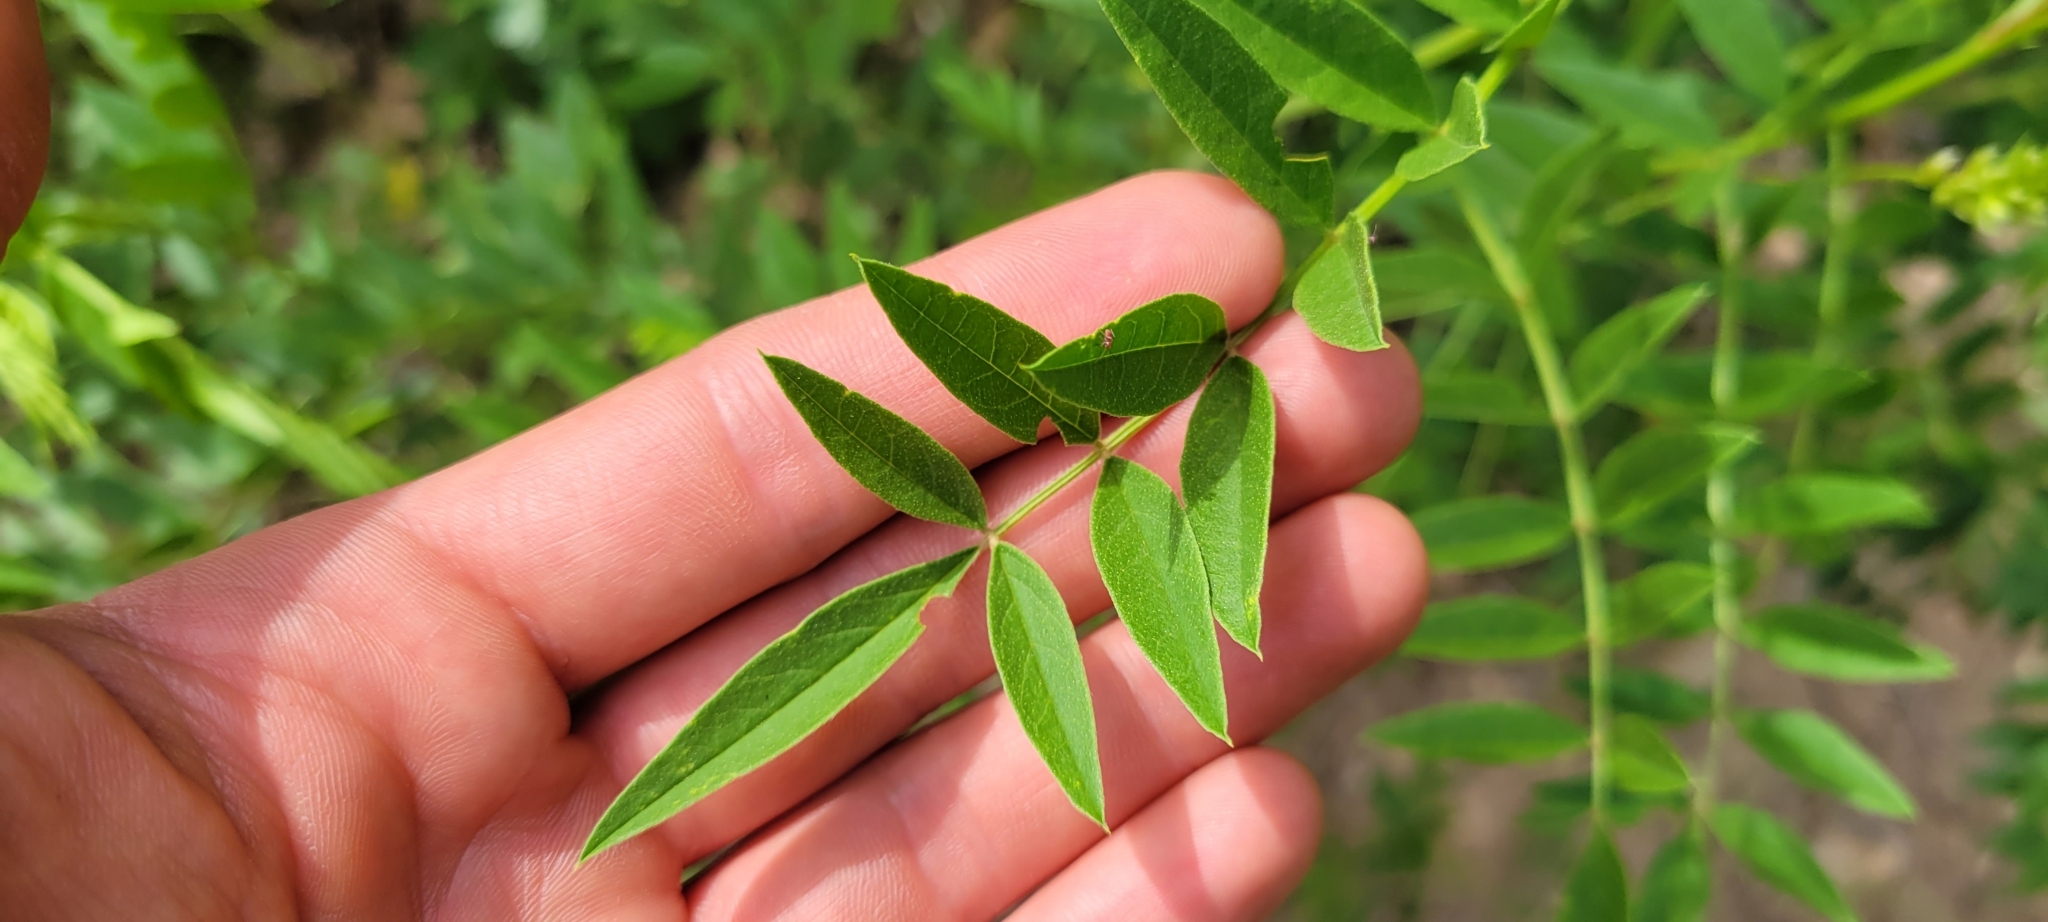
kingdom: Plantae
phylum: Tracheophyta
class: Magnoliopsida
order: Fabales
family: Fabaceae
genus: Glycyrrhiza
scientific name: Glycyrrhiza lepidota
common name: American liquorice
